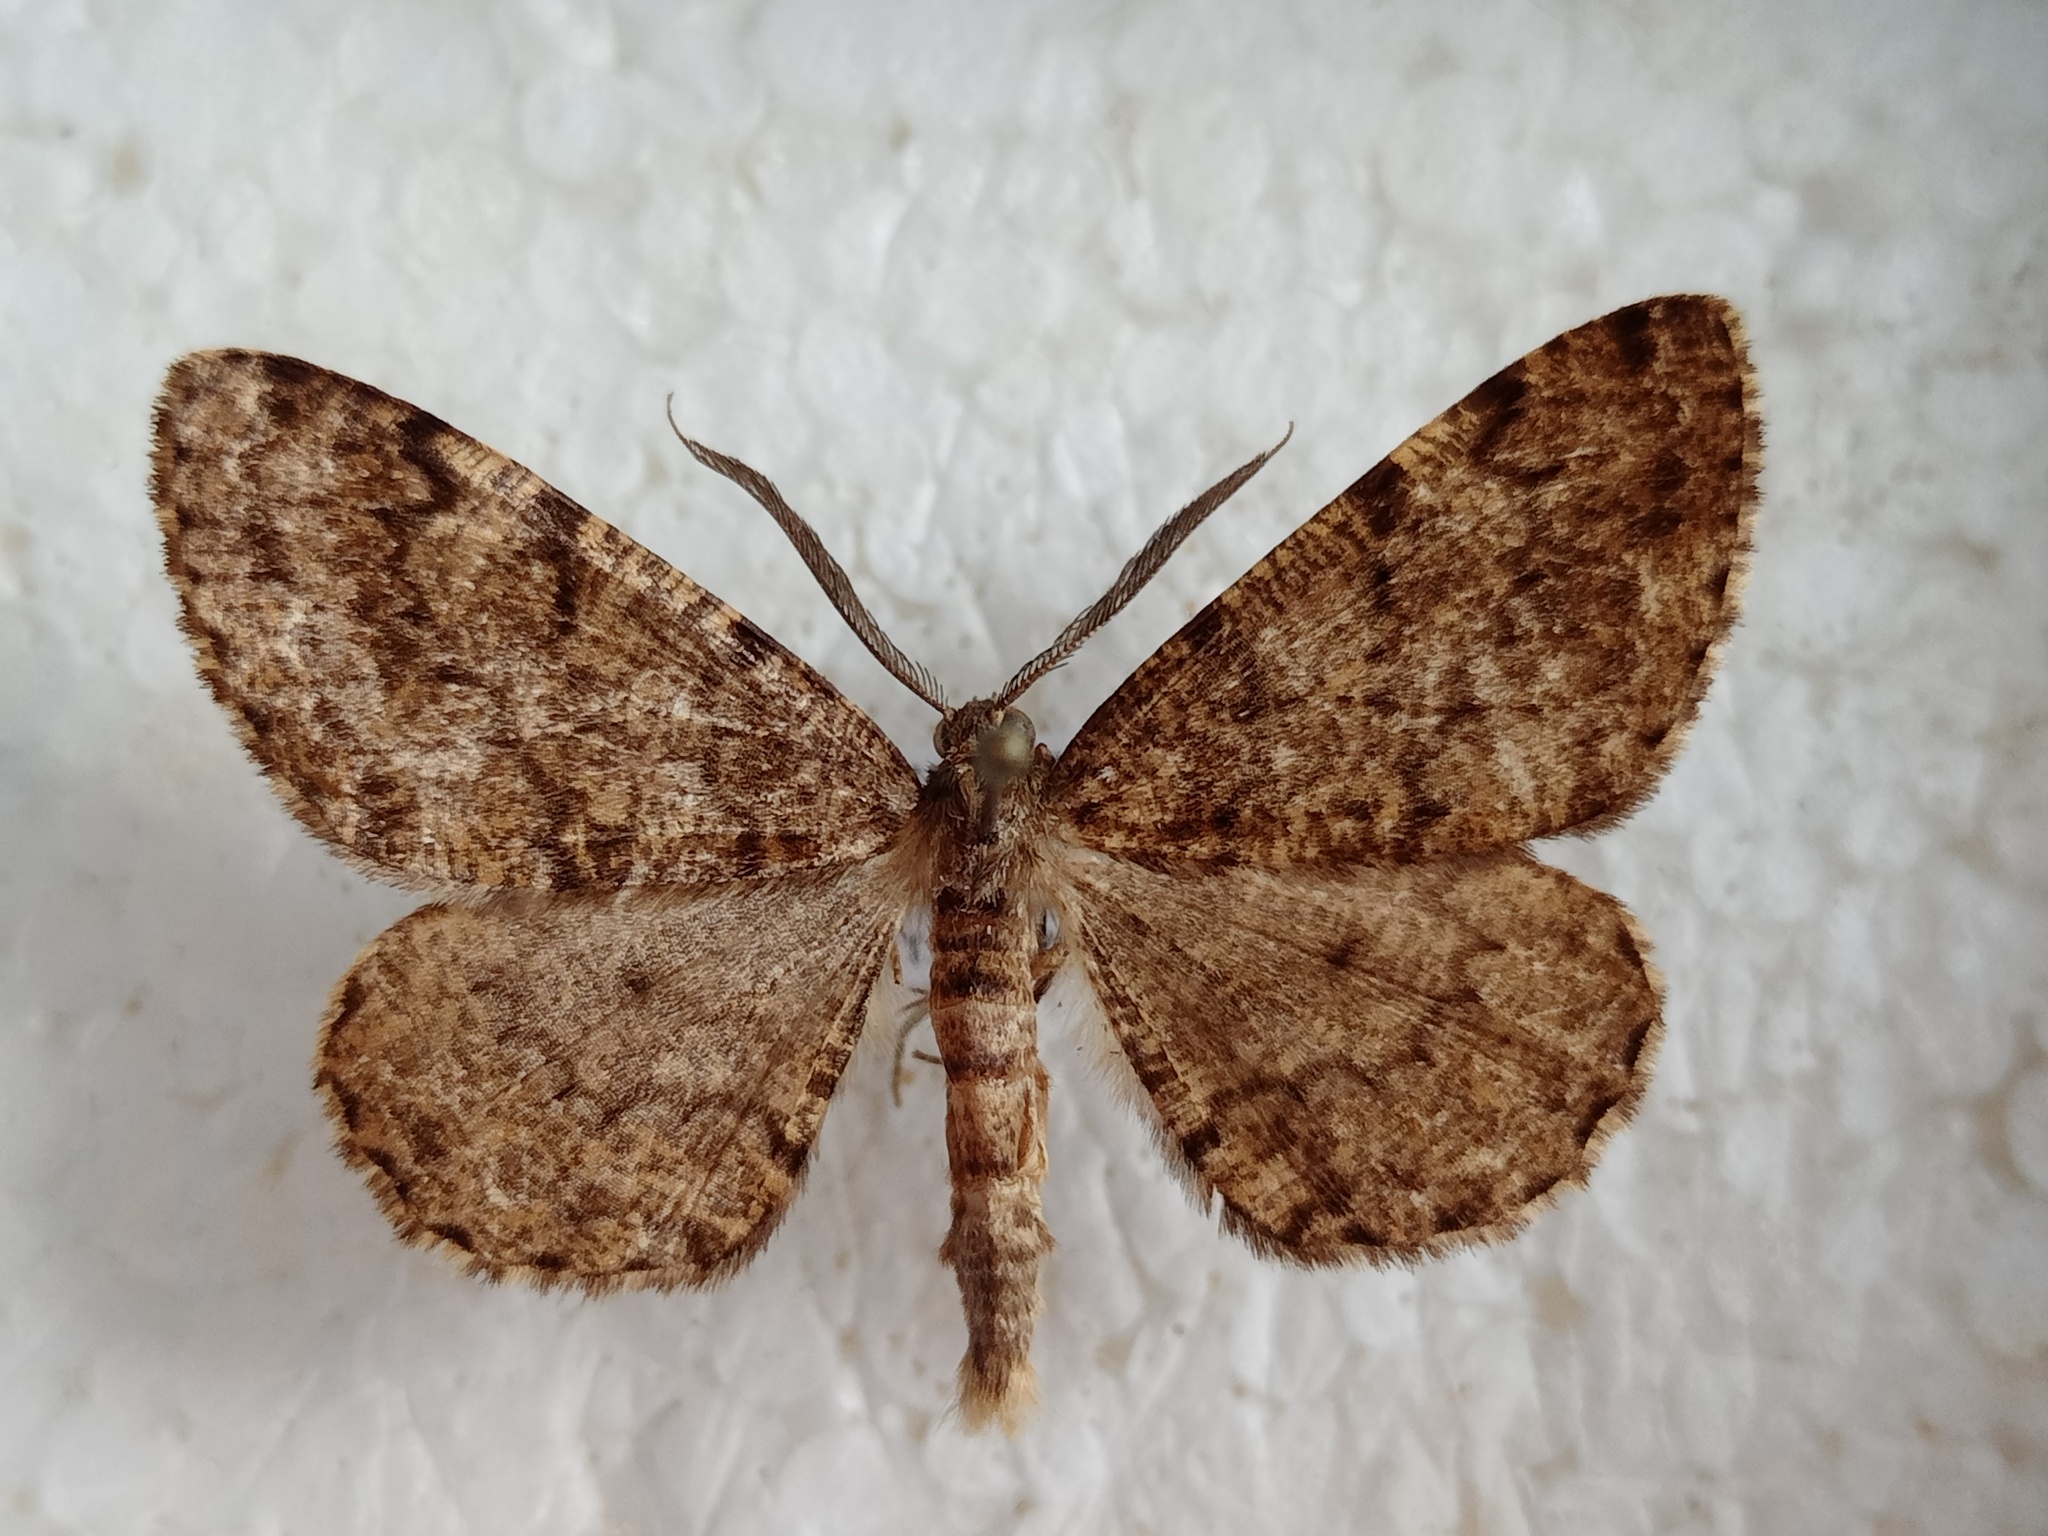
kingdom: Animalia
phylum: Arthropoda
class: Insecta
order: Lepidoptera
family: Geometridae
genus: Deileptenia
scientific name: Deileptenia ribeata
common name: Satin beauty
